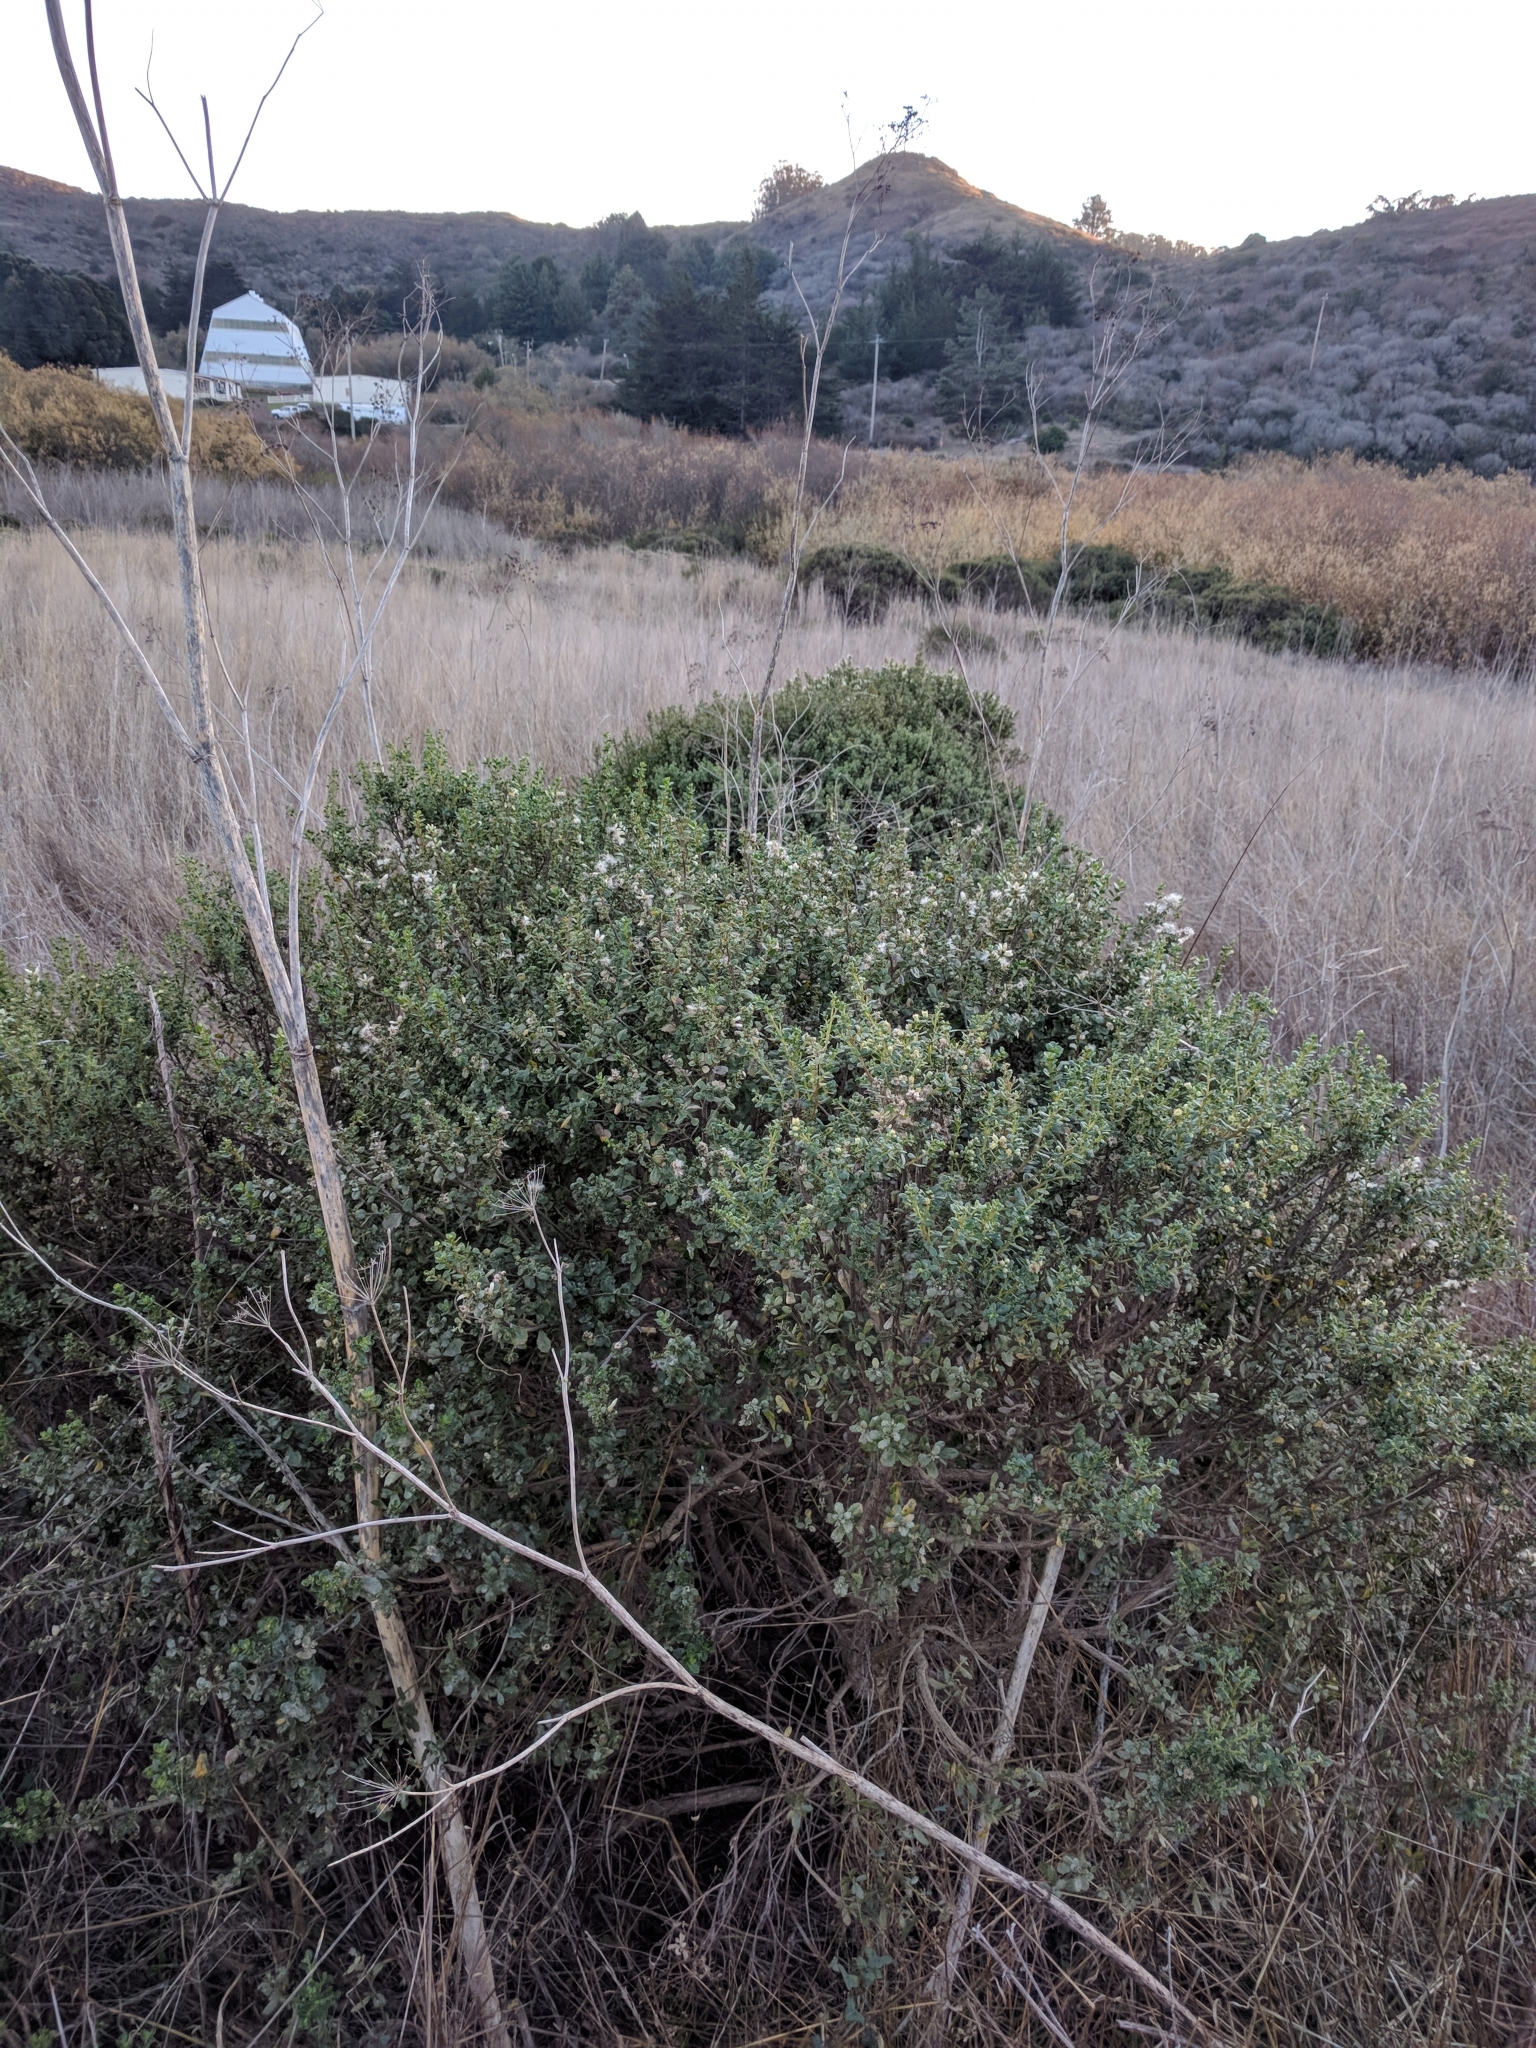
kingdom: Plantae
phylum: Tracheophyta
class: Magnoliopsida
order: Asterales
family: Asteraceae
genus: Baccharis
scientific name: Baccharis pilularis
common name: Coyotebrush
